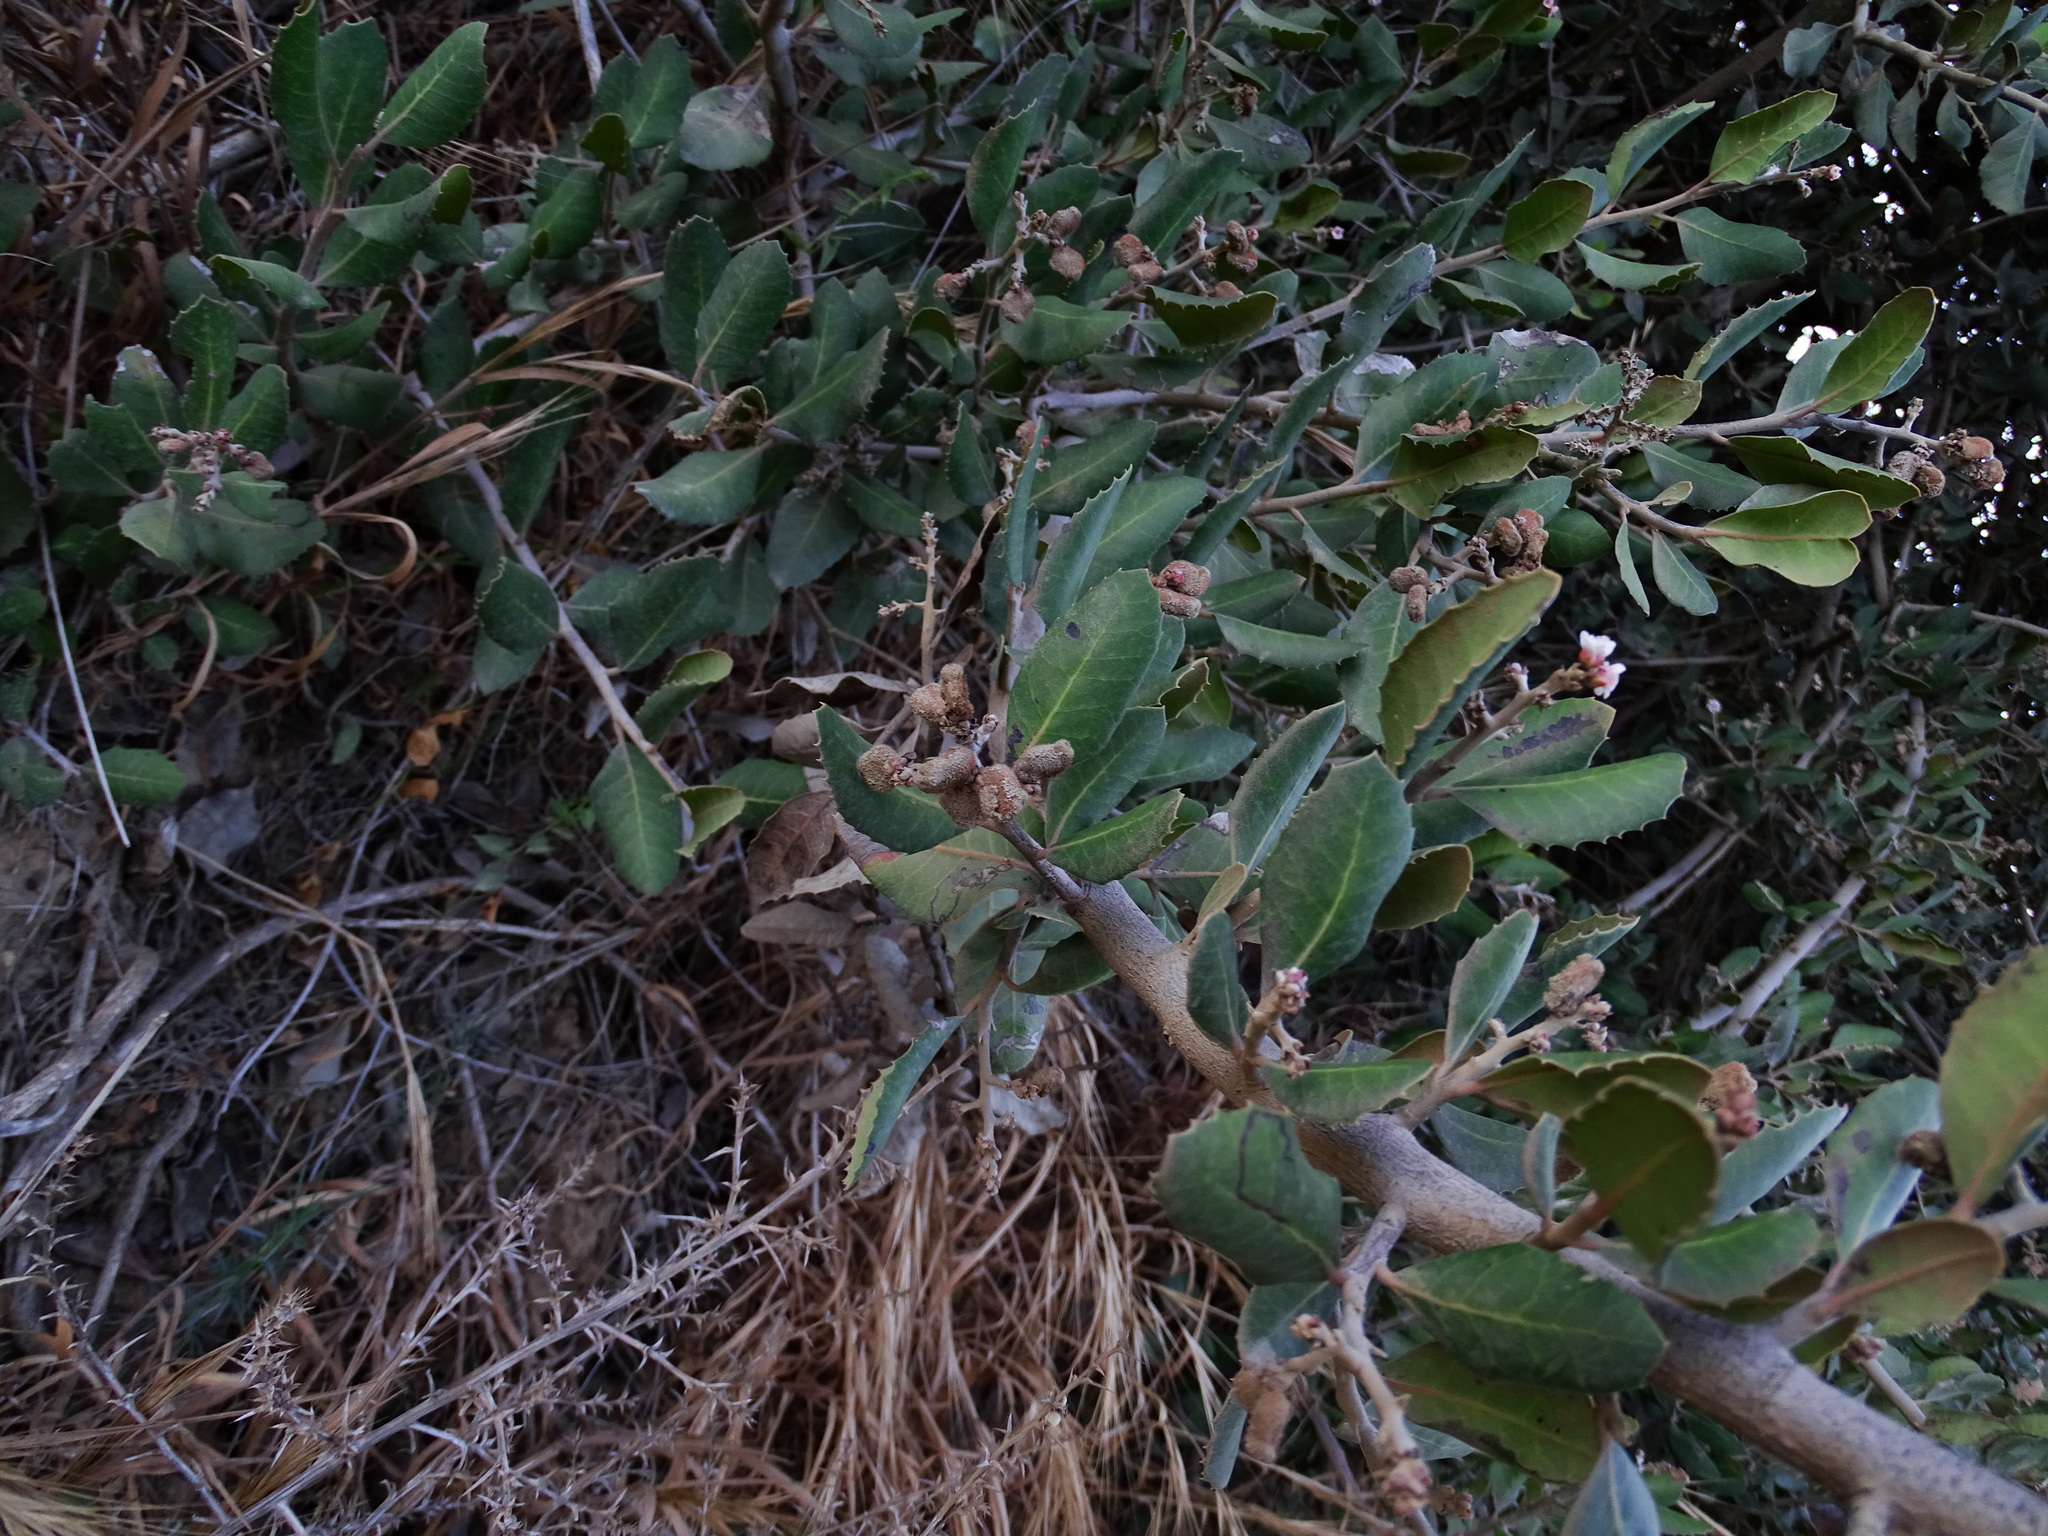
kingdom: Plantae
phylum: Tracheophyta
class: Magnoliopsida
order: Sapindales
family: Anacardiaceae
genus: Rhus
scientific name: Rhus integrifolia
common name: Lemonade sumac
